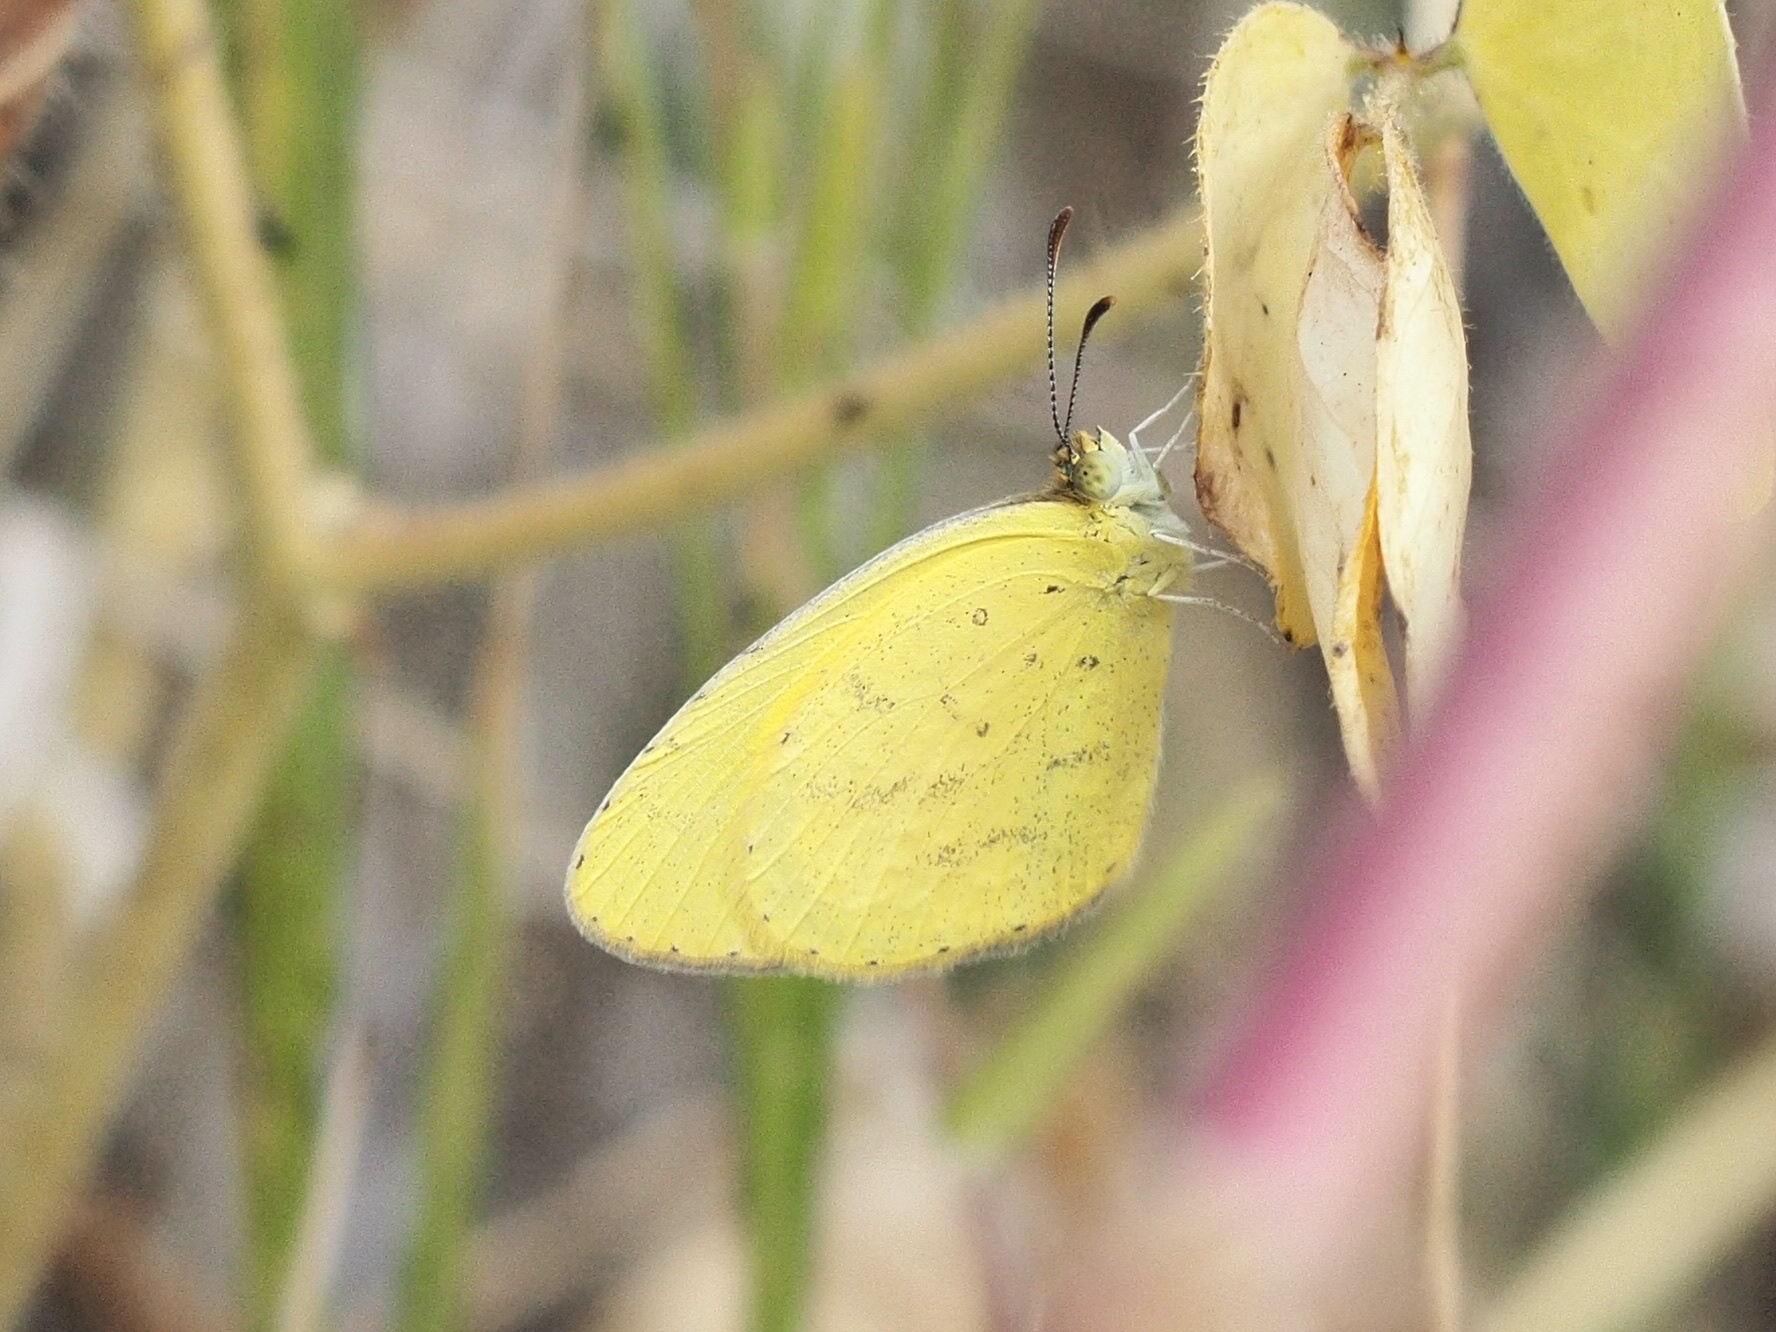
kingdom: Animalia
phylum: Arthropoda
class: Insecta
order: Lepidoptera
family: Pieridae
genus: Terias
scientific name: Terias
